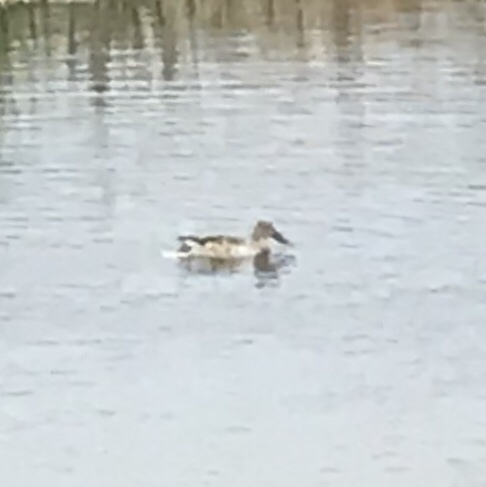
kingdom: Animalia
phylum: Chordata
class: Aves
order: Anseriformes
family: Anatidae
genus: Spatula
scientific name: Spatula clypeata
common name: Northern shoveler
